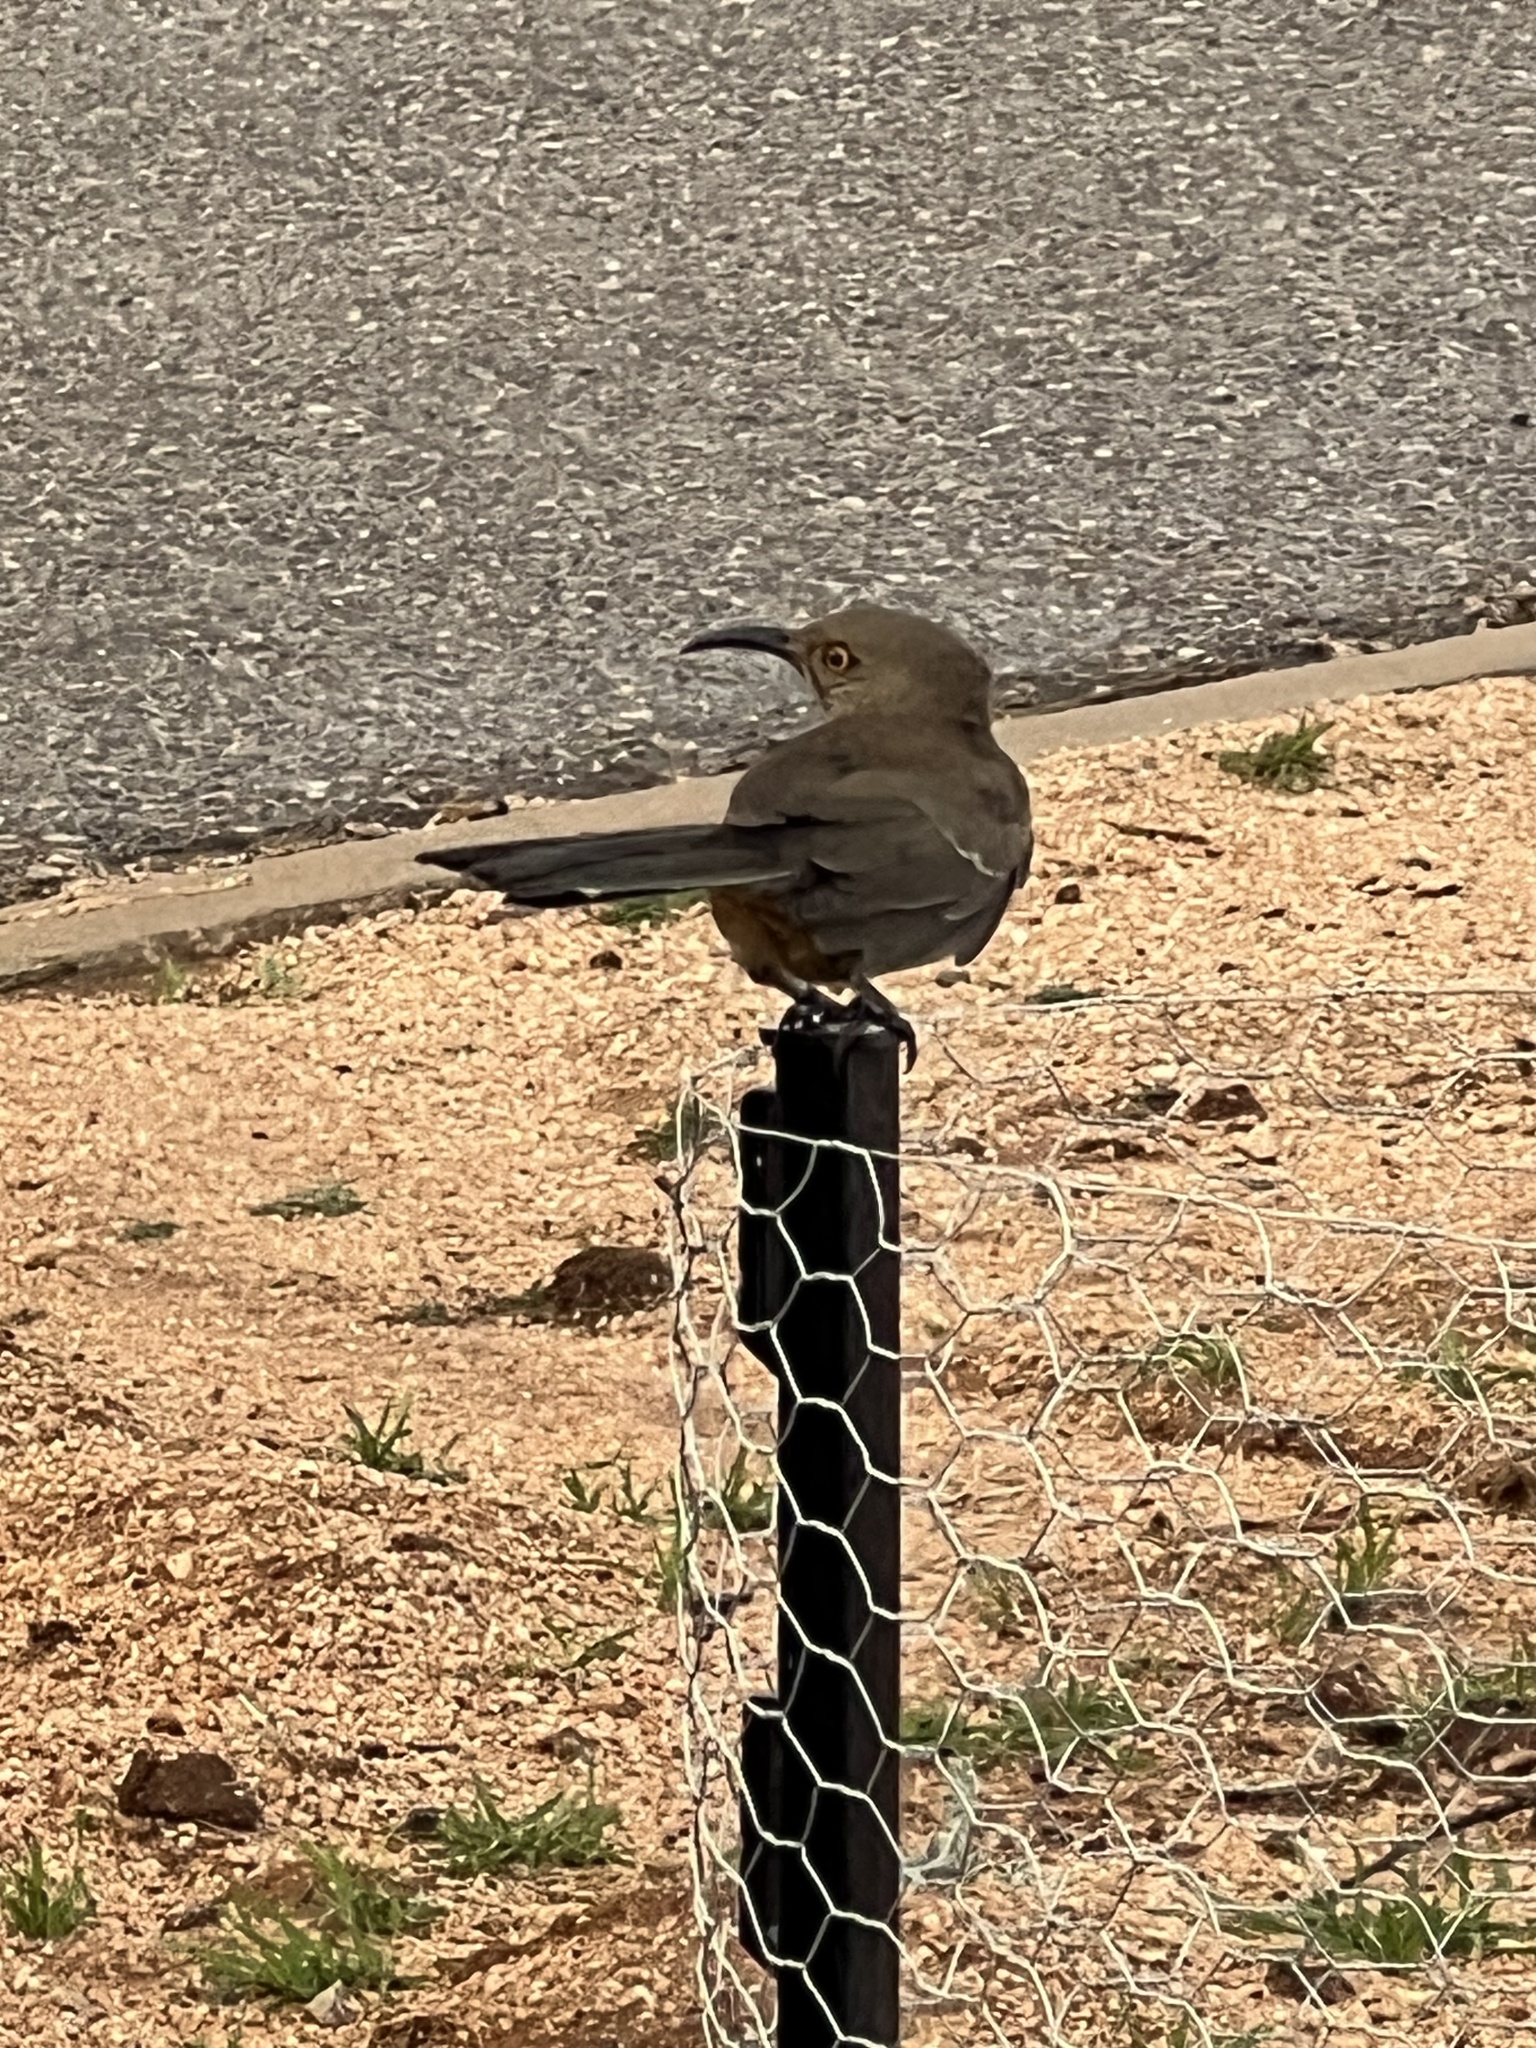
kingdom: Animalia
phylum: Chordata
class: Aves
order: Passeriformes
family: Mimidae
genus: Toxostoma
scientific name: Toxostoma curvirostre
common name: Curve-billed thrasher
